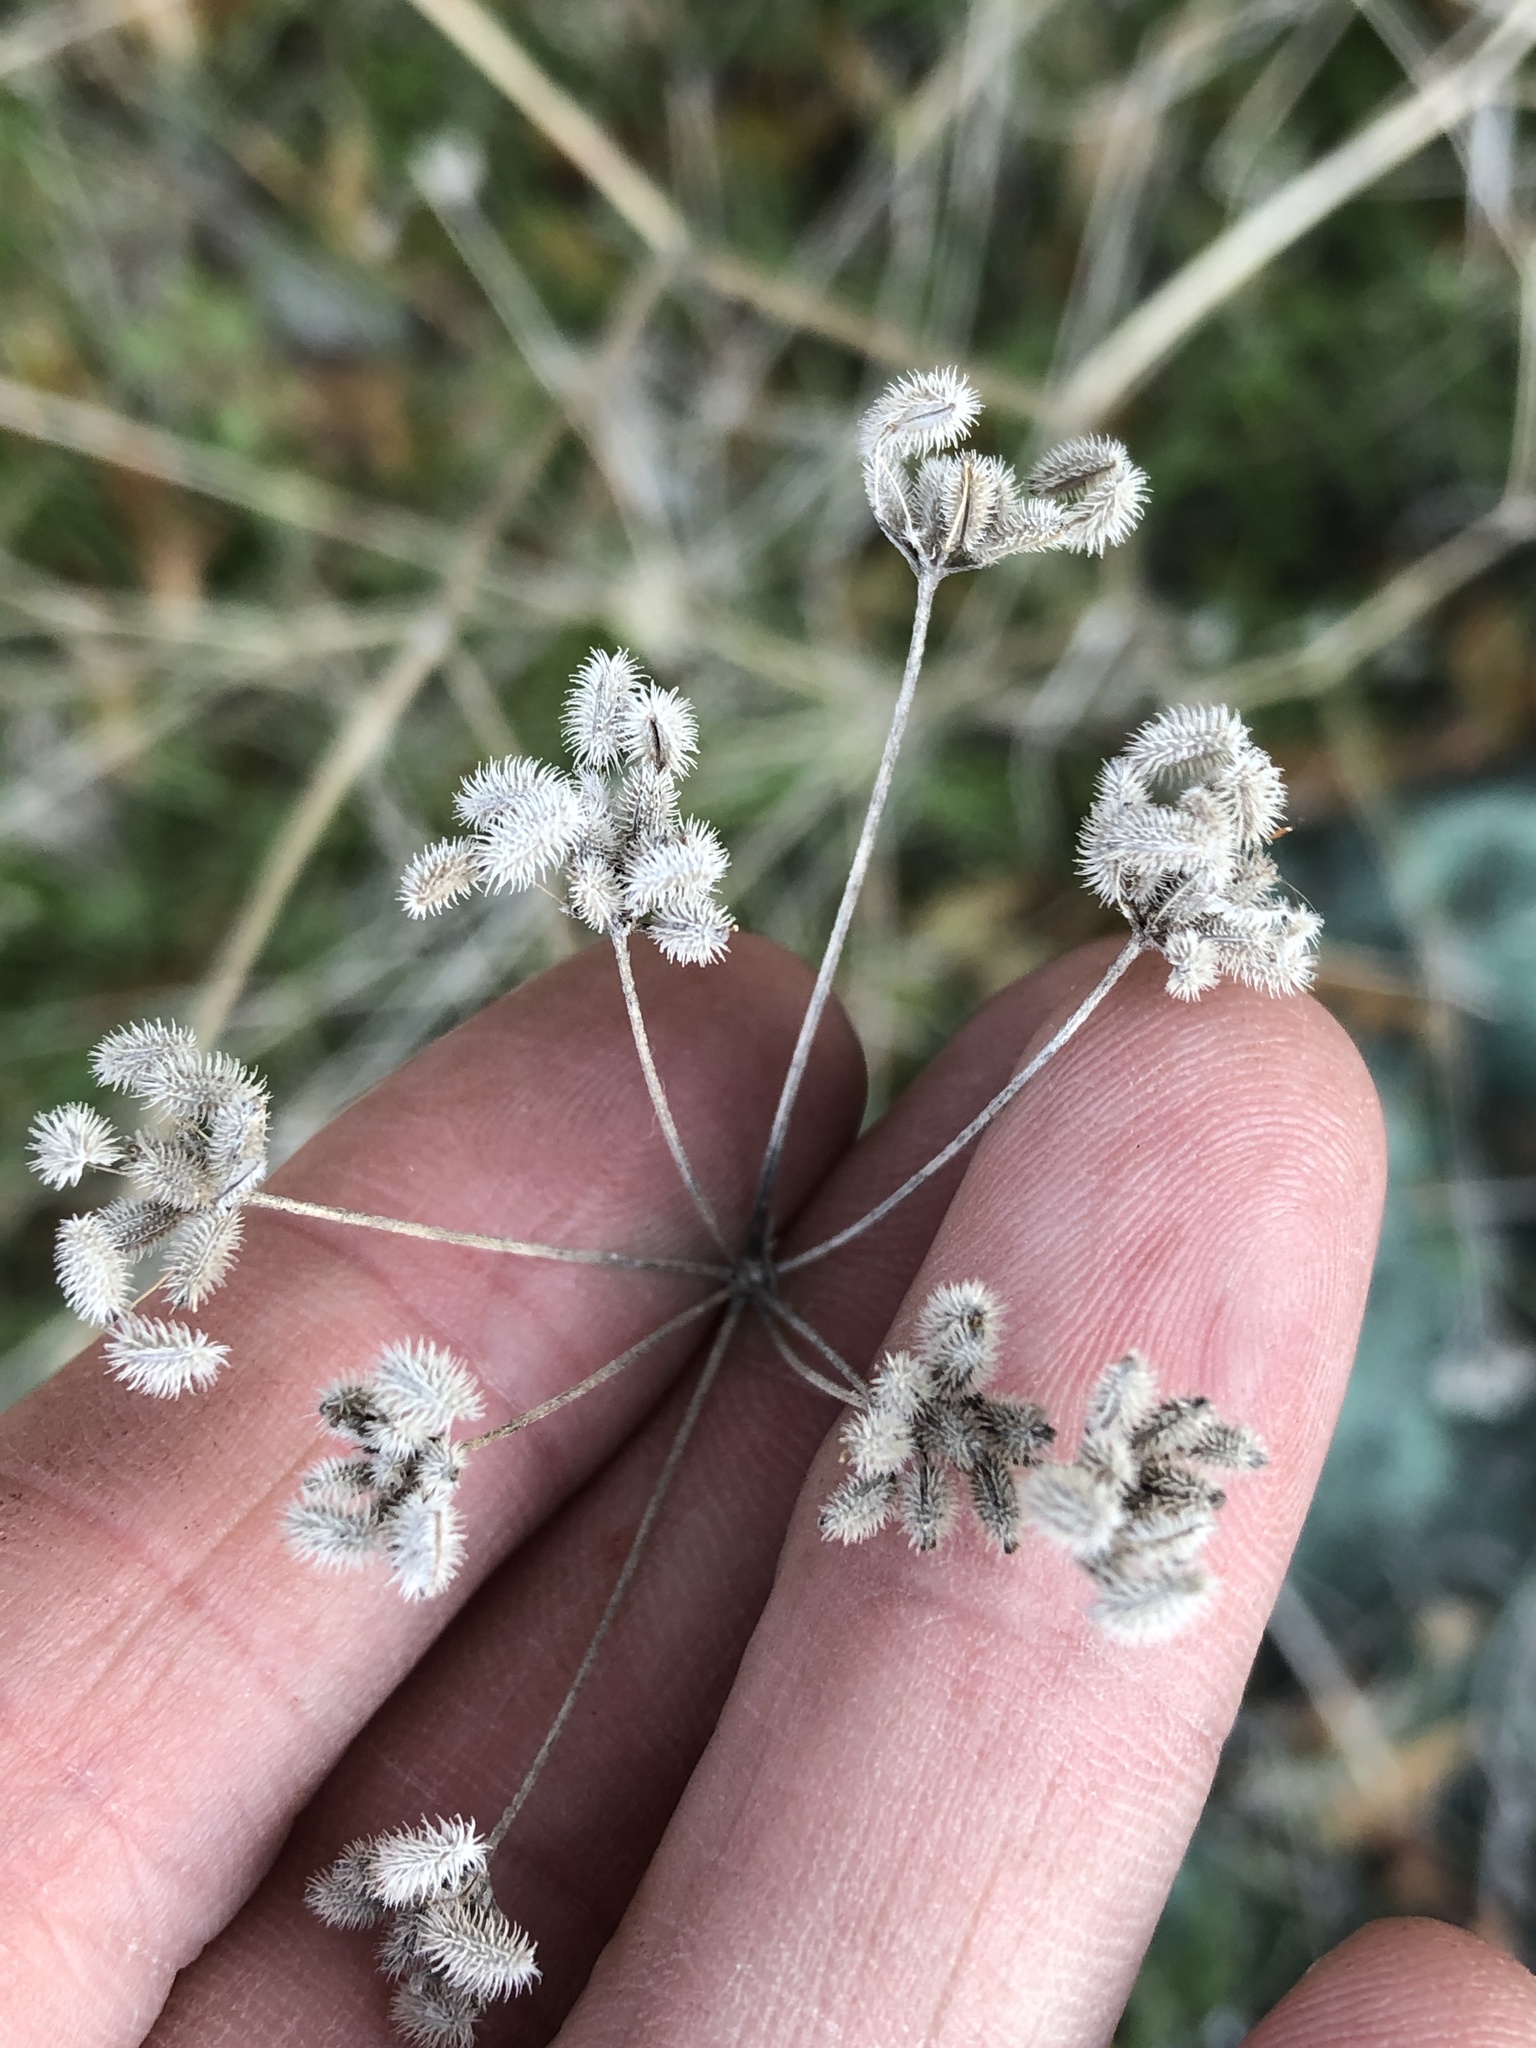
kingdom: Plantae
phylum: Tracheophyta
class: Magnoliopsida
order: Apiales
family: Apiaceae
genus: Torilis
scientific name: Torilis arvensis
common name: Spreading hedge-parsley
